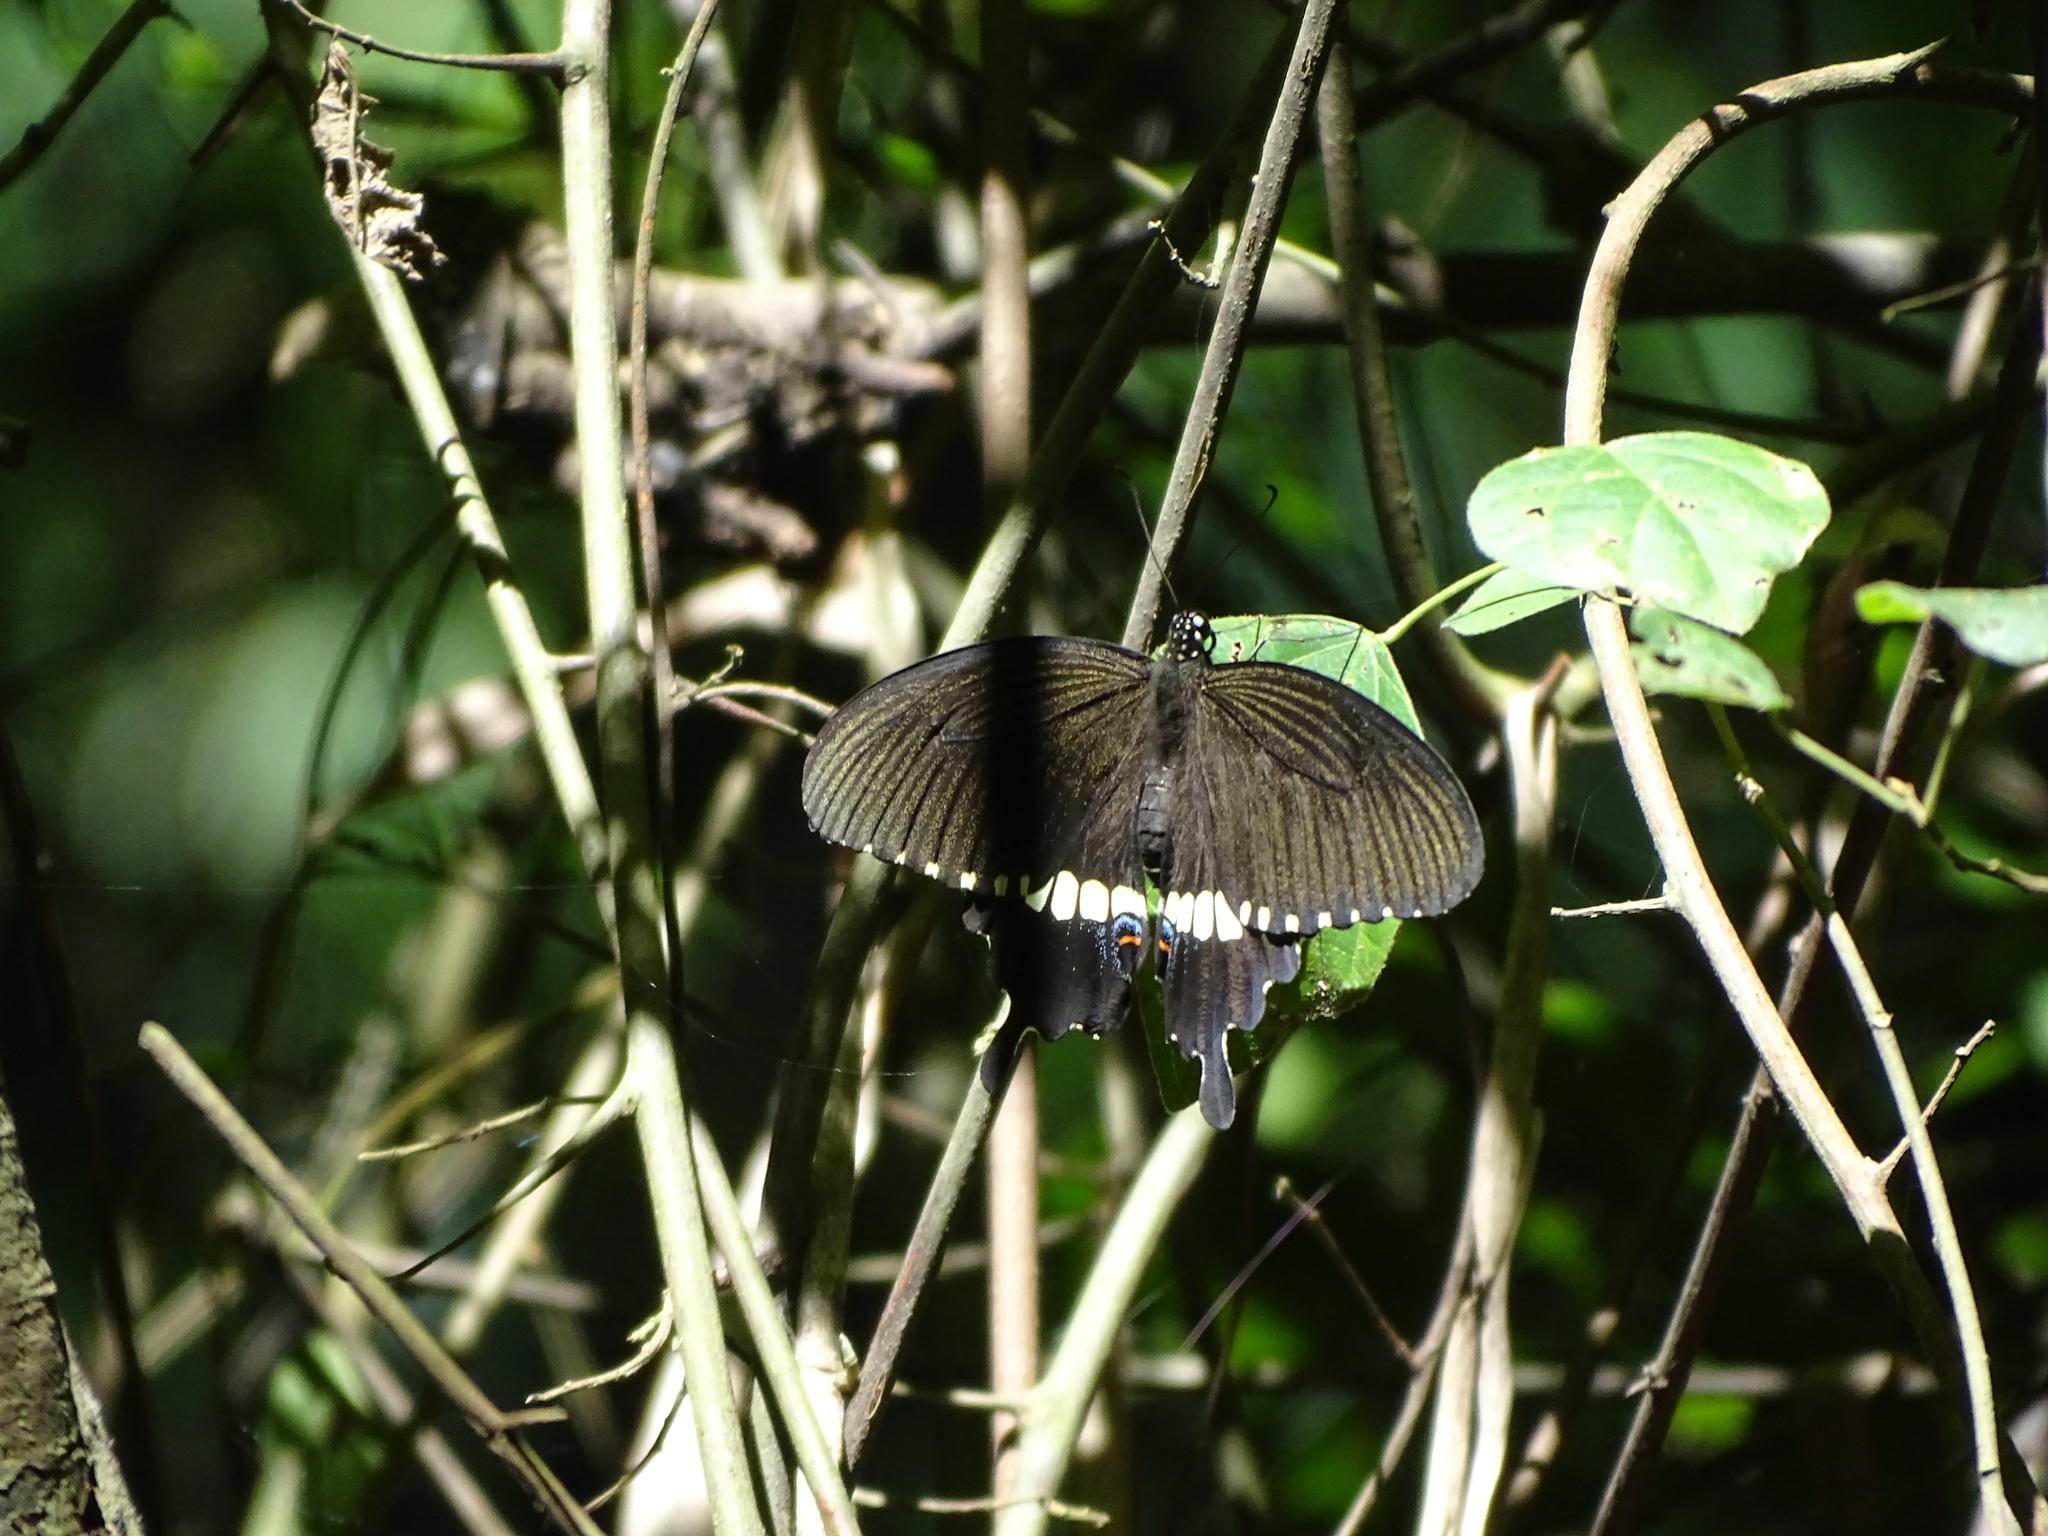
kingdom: Animalia
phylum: Arthropoda
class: Insecta
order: Lepidoptera
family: Papilionidae
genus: Papilio
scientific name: Papilio polytes
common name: Common mormon
